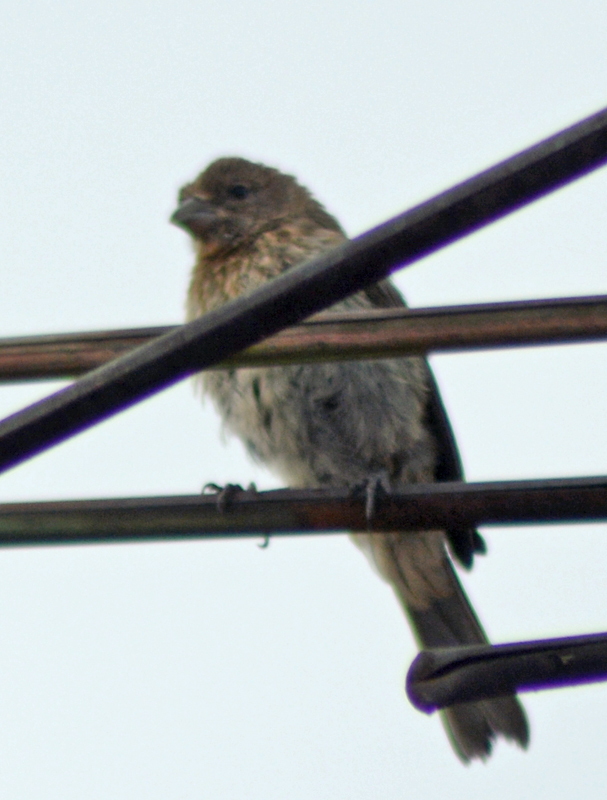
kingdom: Animalia
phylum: Chordata
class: Aves
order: Passeriformes
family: Fringillidae
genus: Haemorhous
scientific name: Haemorhous mexicanus
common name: House finch
